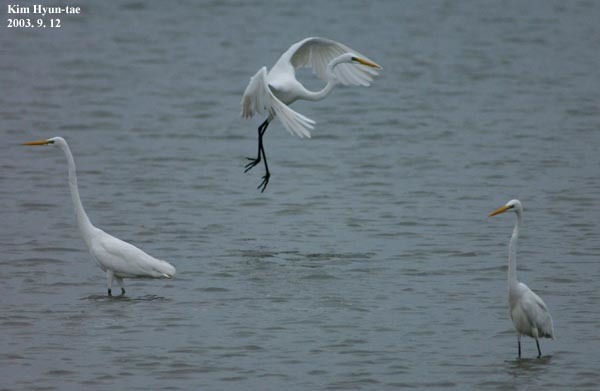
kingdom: Animalia
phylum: Chordata
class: Aves
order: Pelecaniformes
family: Ardeidae
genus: Ardea
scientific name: Ardea alba
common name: Great egret
